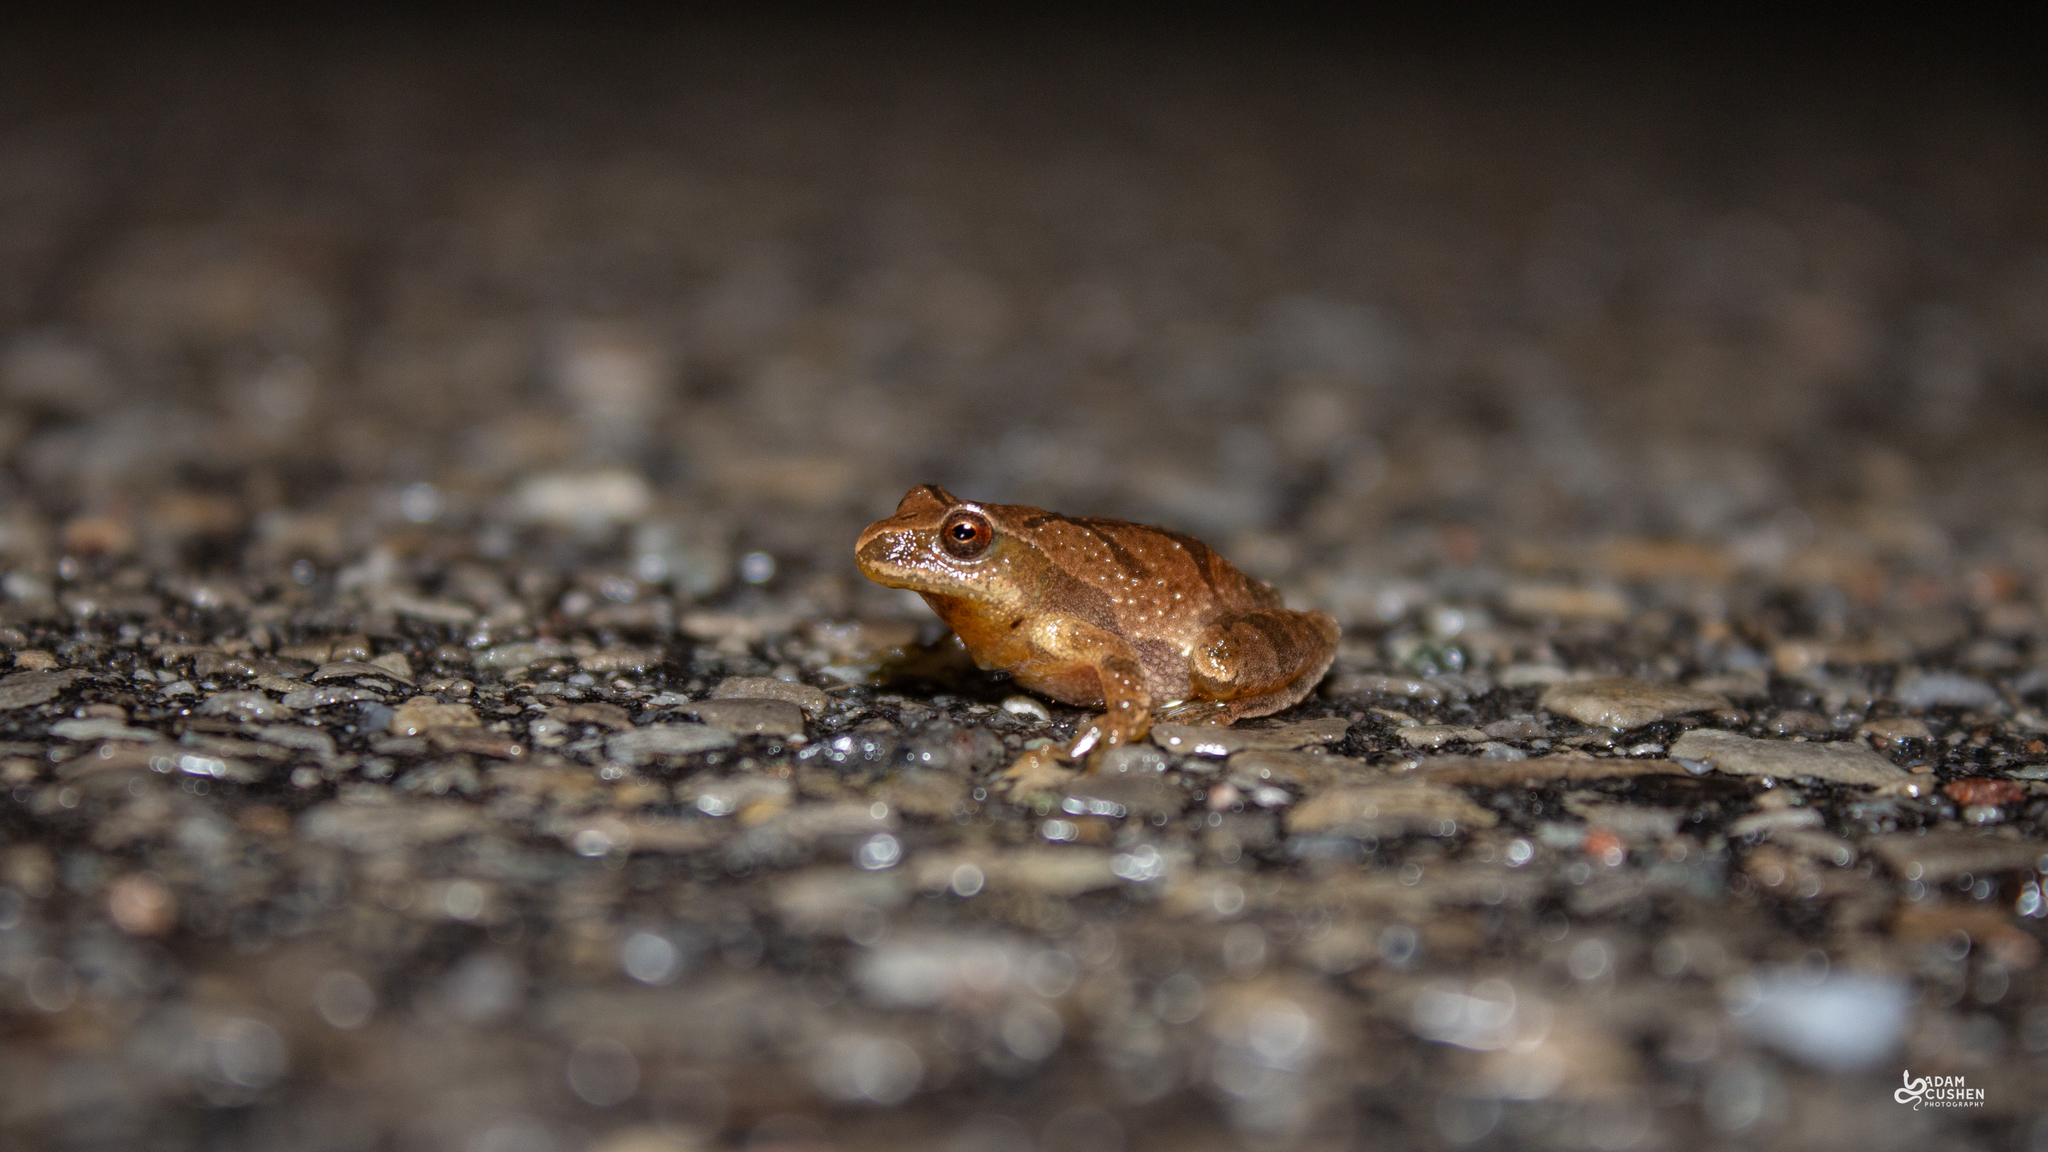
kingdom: Animalia
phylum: Chordata
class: Amphibia
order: Anura
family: Hylidae
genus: Pseudacris
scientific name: Pseudacris crucifer
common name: Spring peeper
